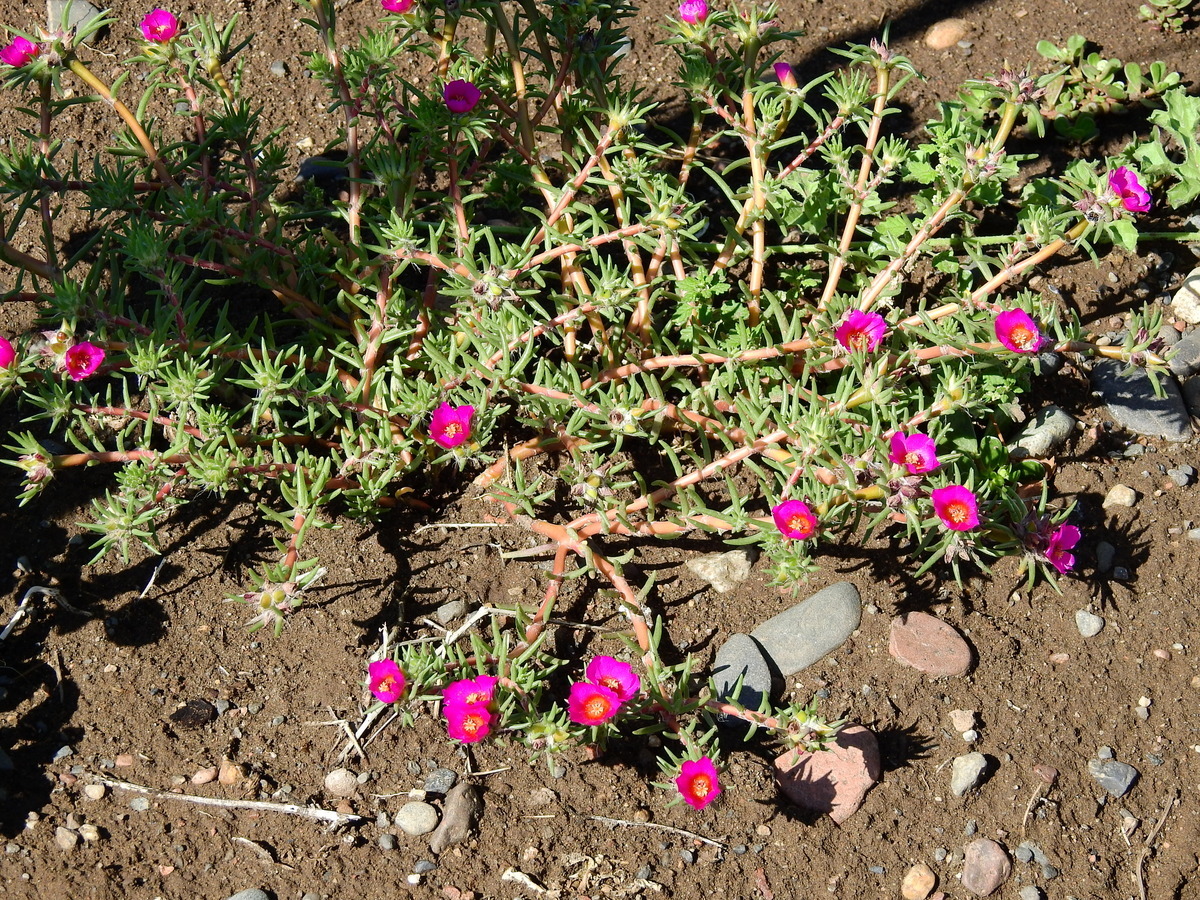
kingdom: Plantae
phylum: Tracheophyta
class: Magnoliopsida
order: Caryophyllales
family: Portulacaceae
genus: Portulaca
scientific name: Portulaca grandiflora
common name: Moss-rose
